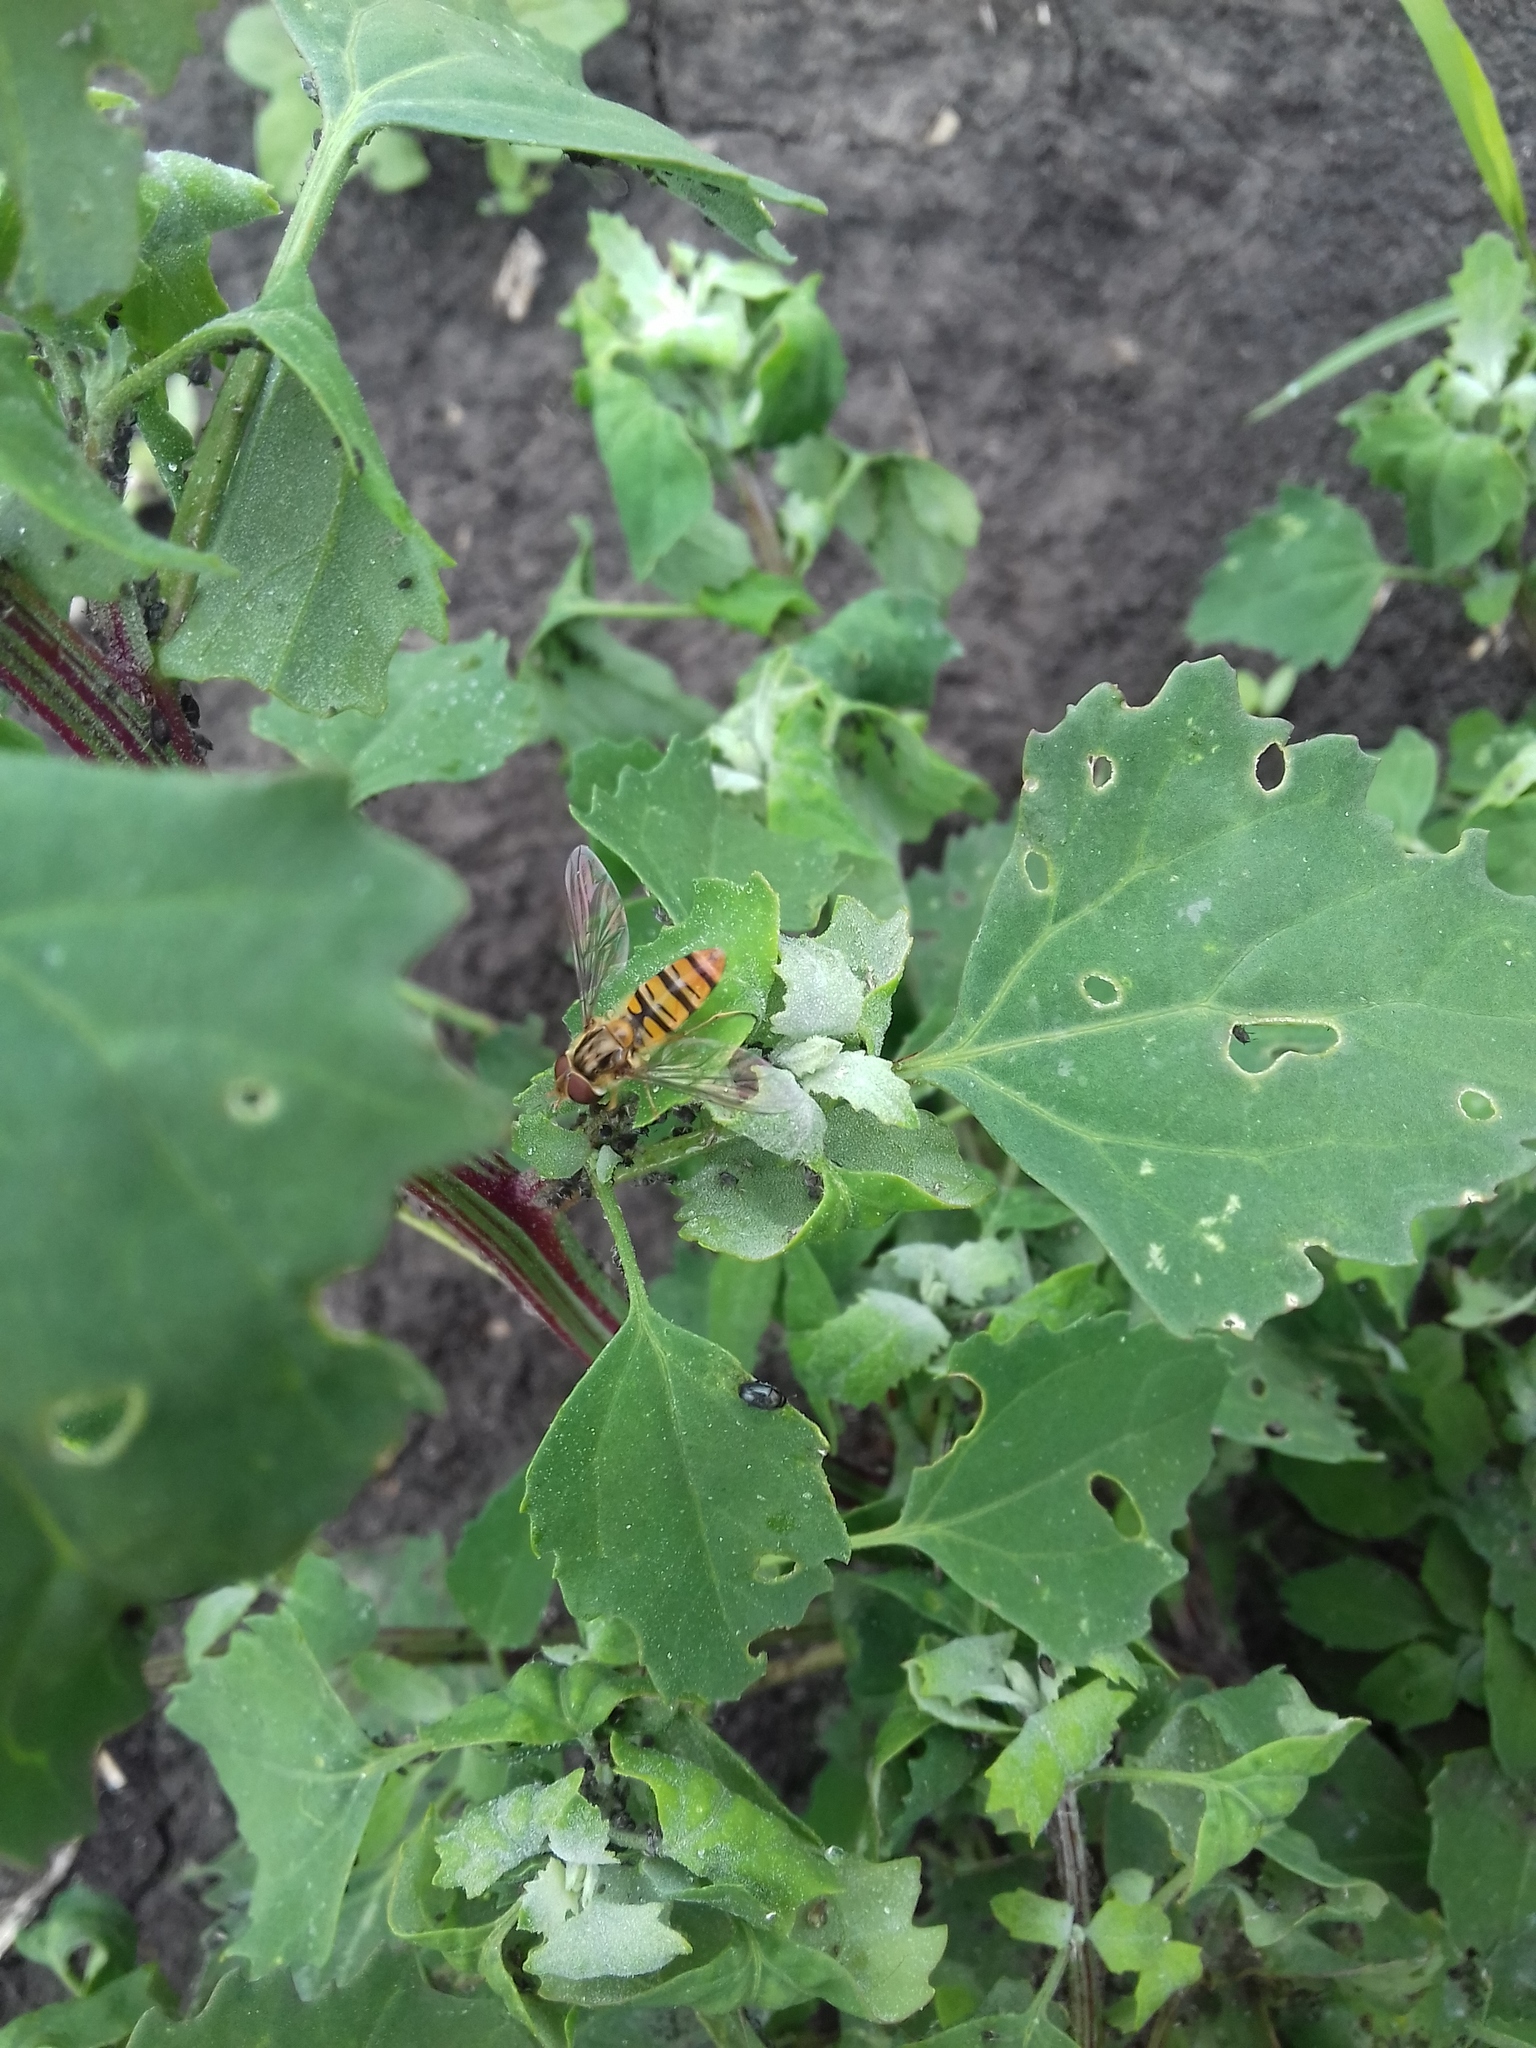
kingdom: Animalia
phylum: Arthropoda
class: Insecta
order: Diptera
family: Syrphidae
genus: Episyrphus
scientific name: Episyrphus balteatus
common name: Marmalade hoverfly
